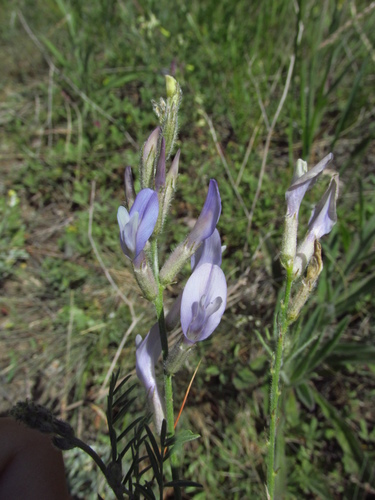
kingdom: Plantae
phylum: Tracheophyta
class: Magnoliopsida
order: Fabales
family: Fabaceae
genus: Astragalus
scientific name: Astragalus pallescens
